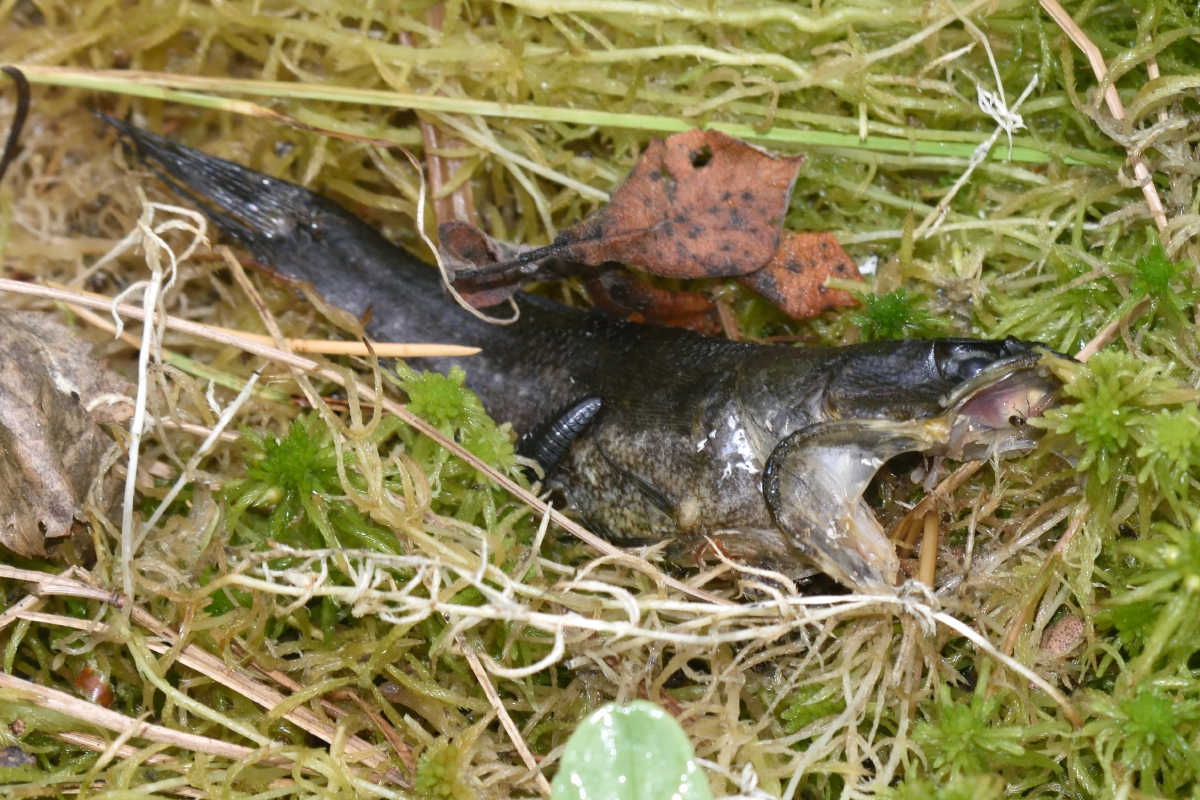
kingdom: Animalia
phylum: Chordata
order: Perciformes
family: Odontobutidae
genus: Perccottus
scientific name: Perccottus glenii
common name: Amur sleeper
